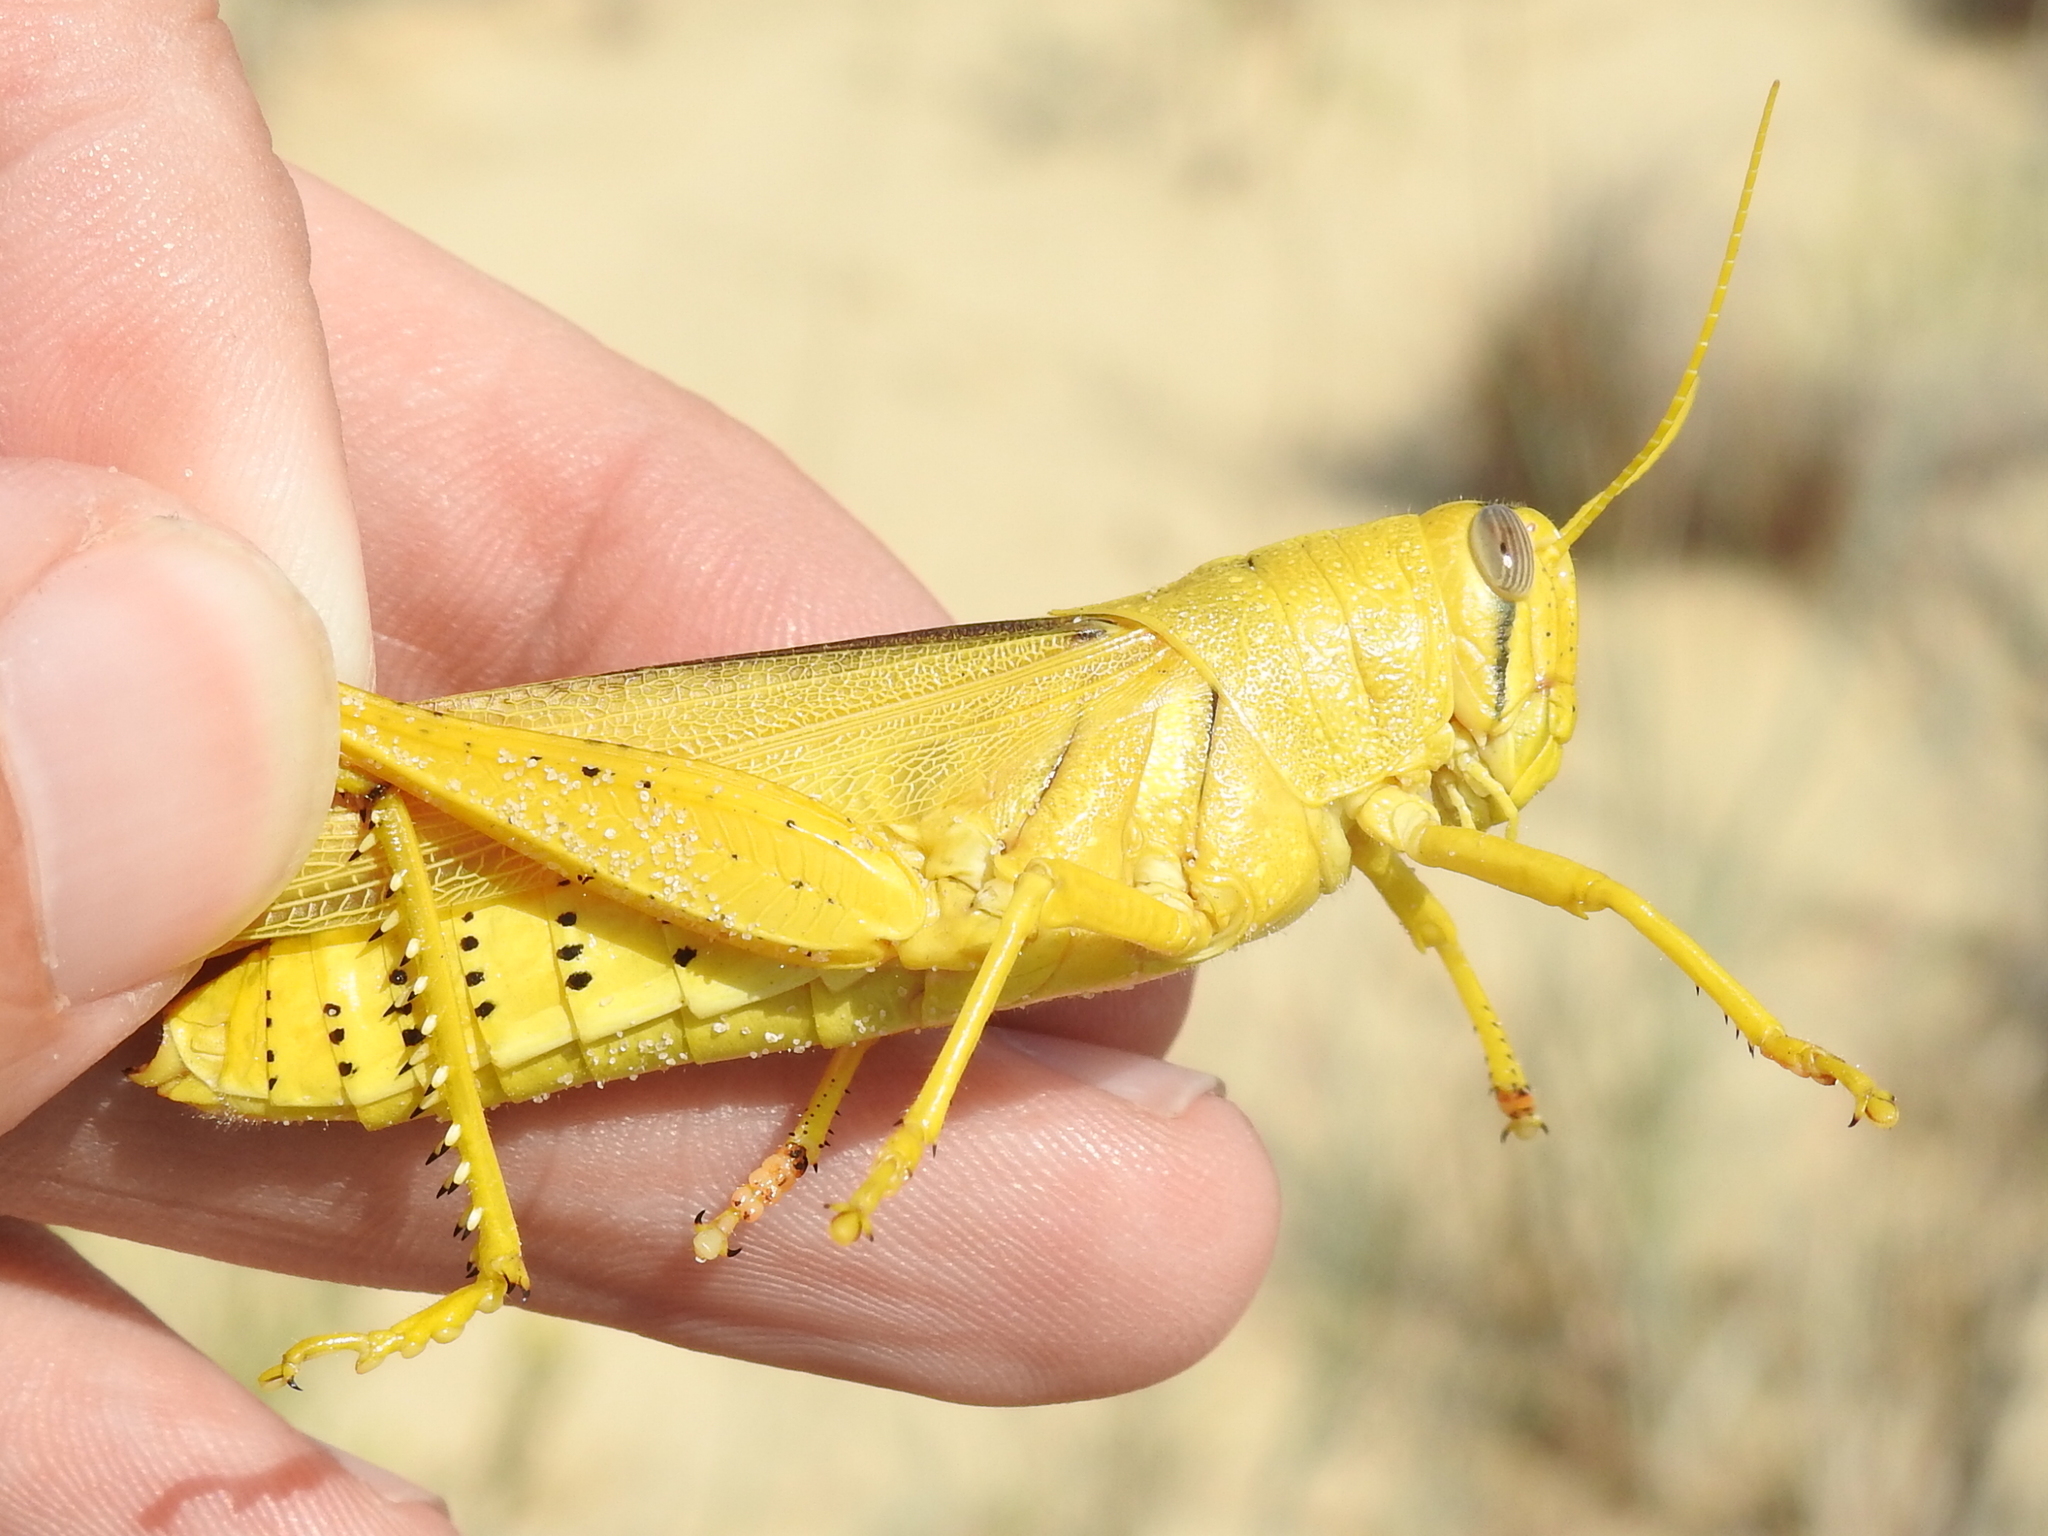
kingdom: Animalia
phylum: Arthropoda
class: Insecta
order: Orthoptera
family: Acrididae
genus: Schistocerca
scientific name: Schistocerca lineata
